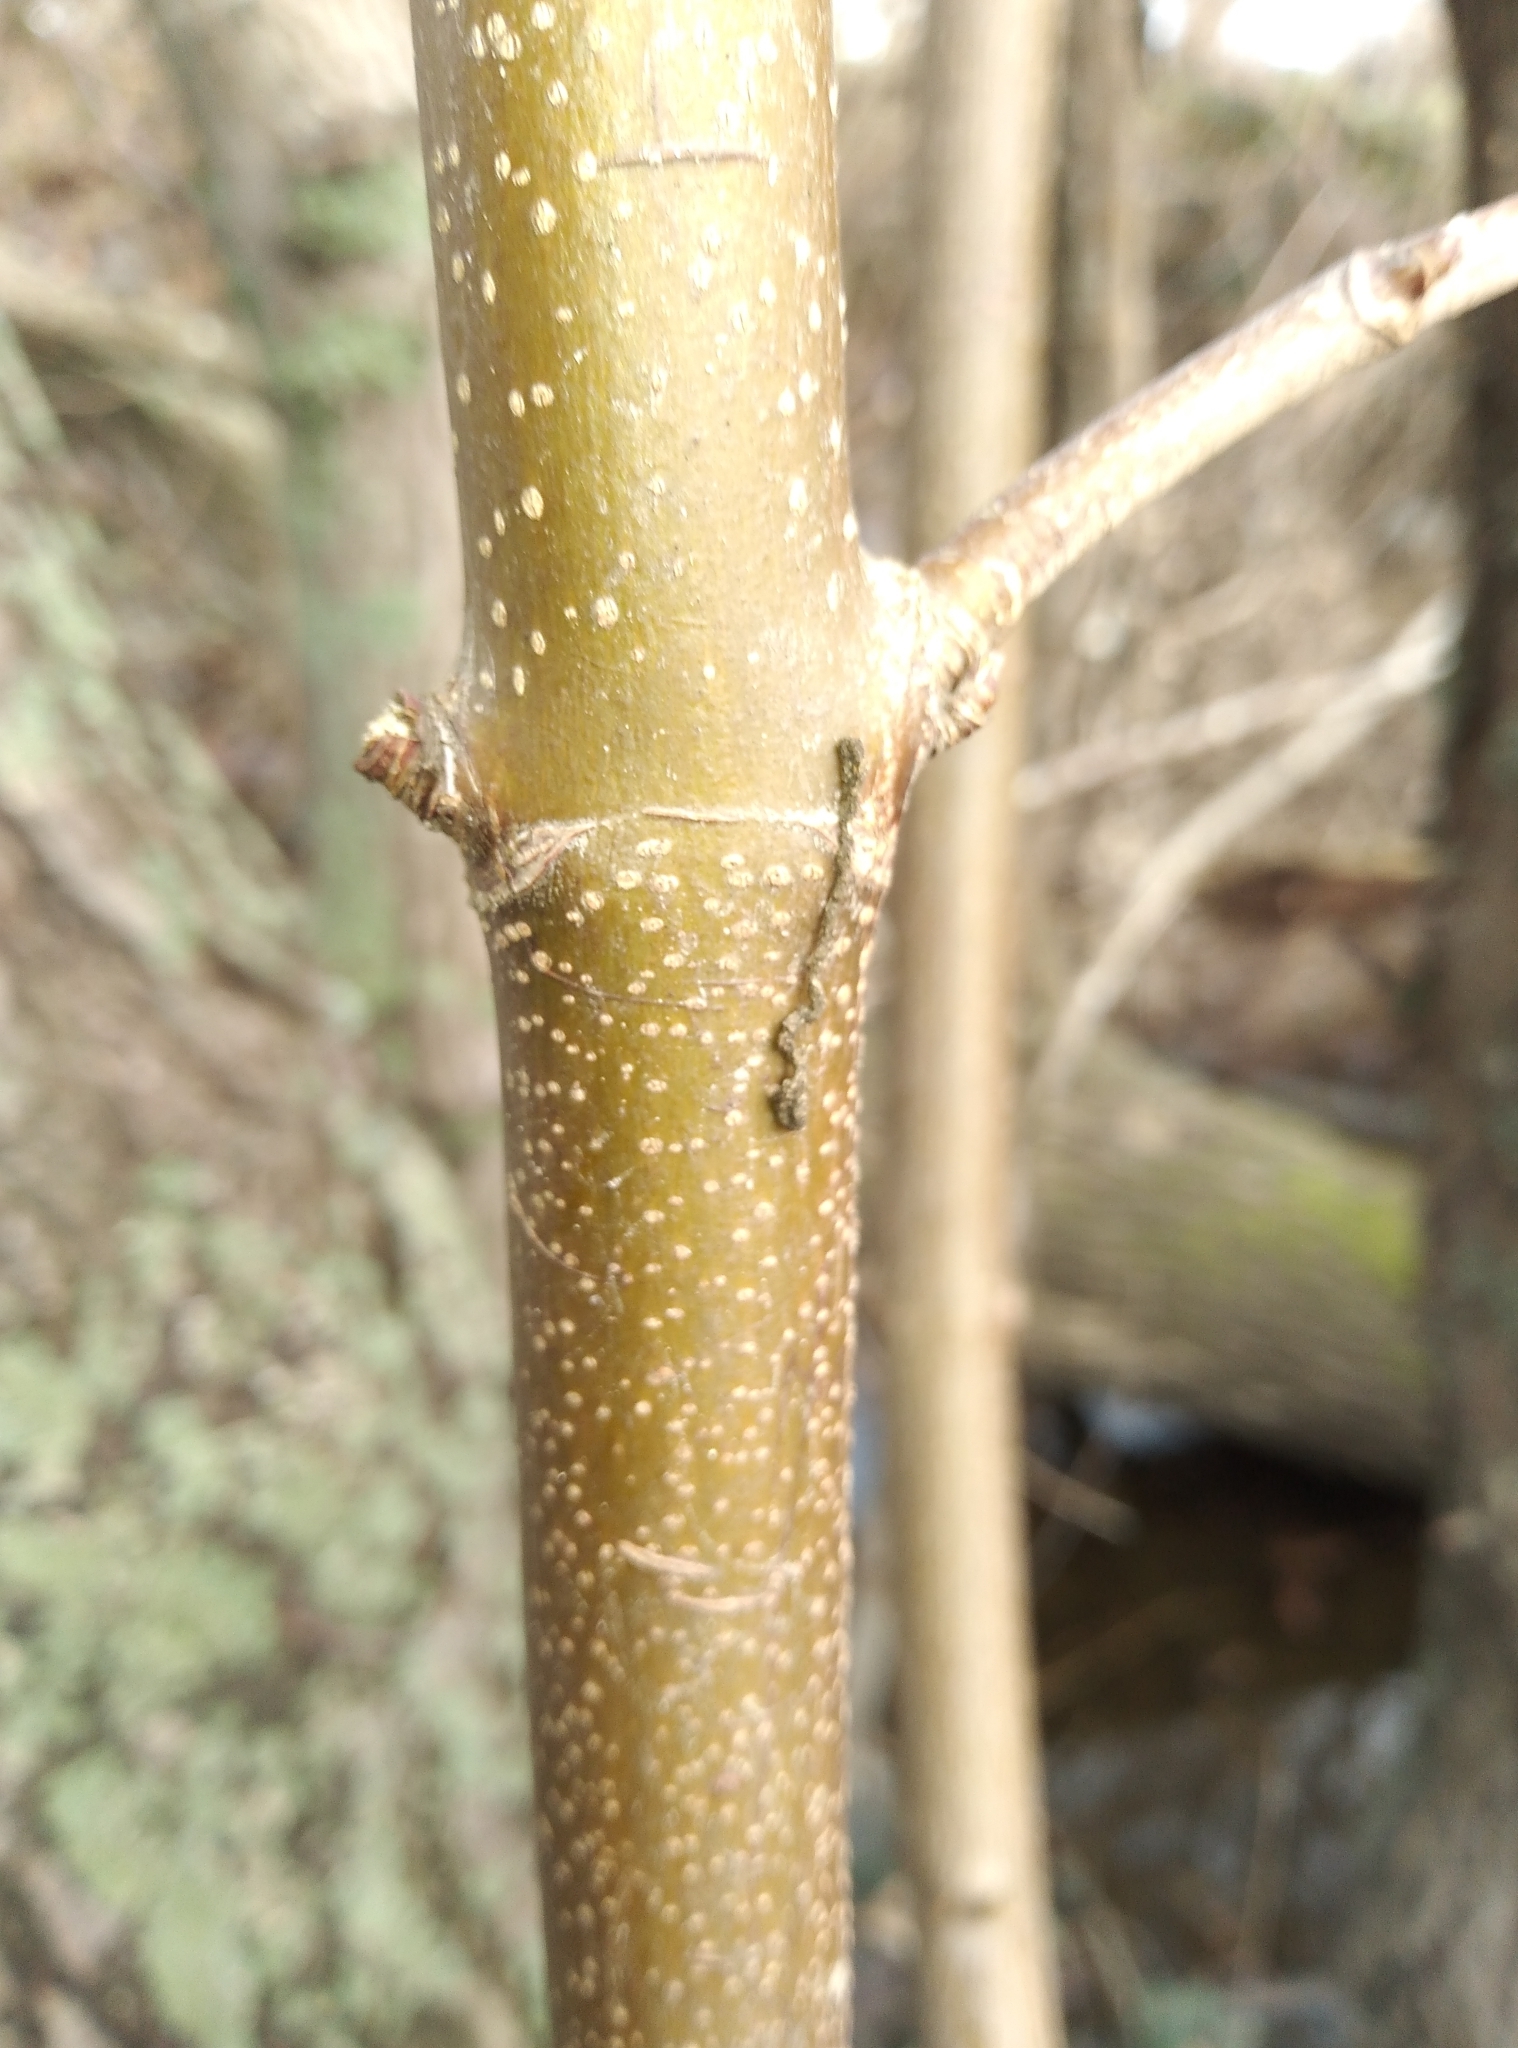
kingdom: Plantae
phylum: Tracheophyta
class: Magnoliopsida
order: Sapindales
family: Sapindaceae
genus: Acer
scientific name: Acer pseudoplatanus
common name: Sycamore
